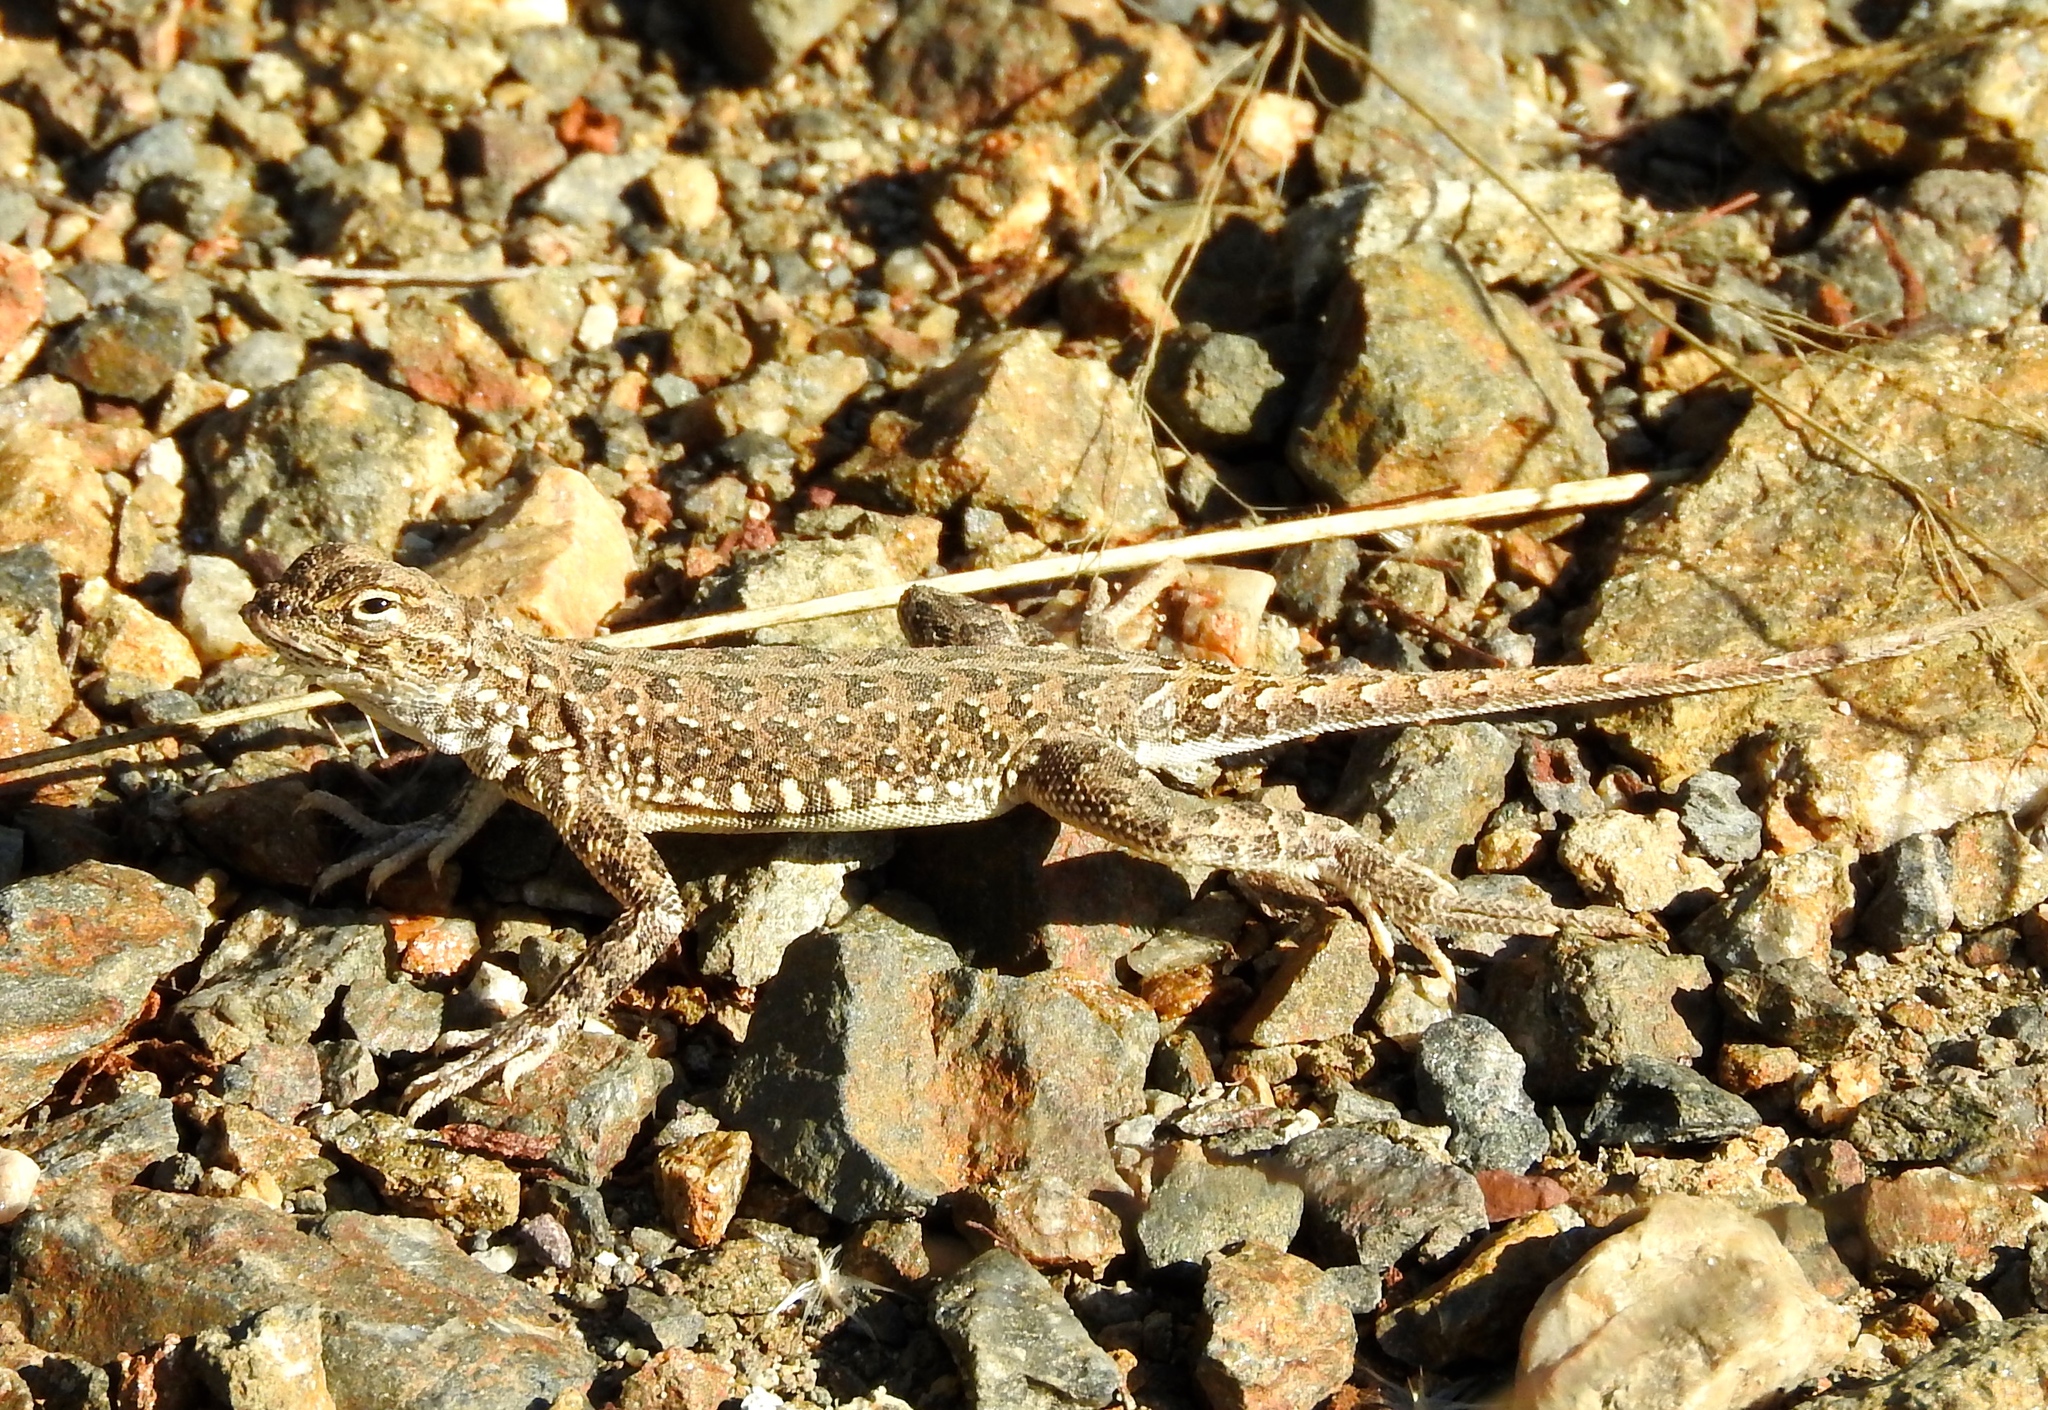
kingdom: Animalia
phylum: Chordata
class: Squamata
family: Phrynosomatidae
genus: Holbrookia
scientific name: Holbrookia elegans
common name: Elegant earless lizard
